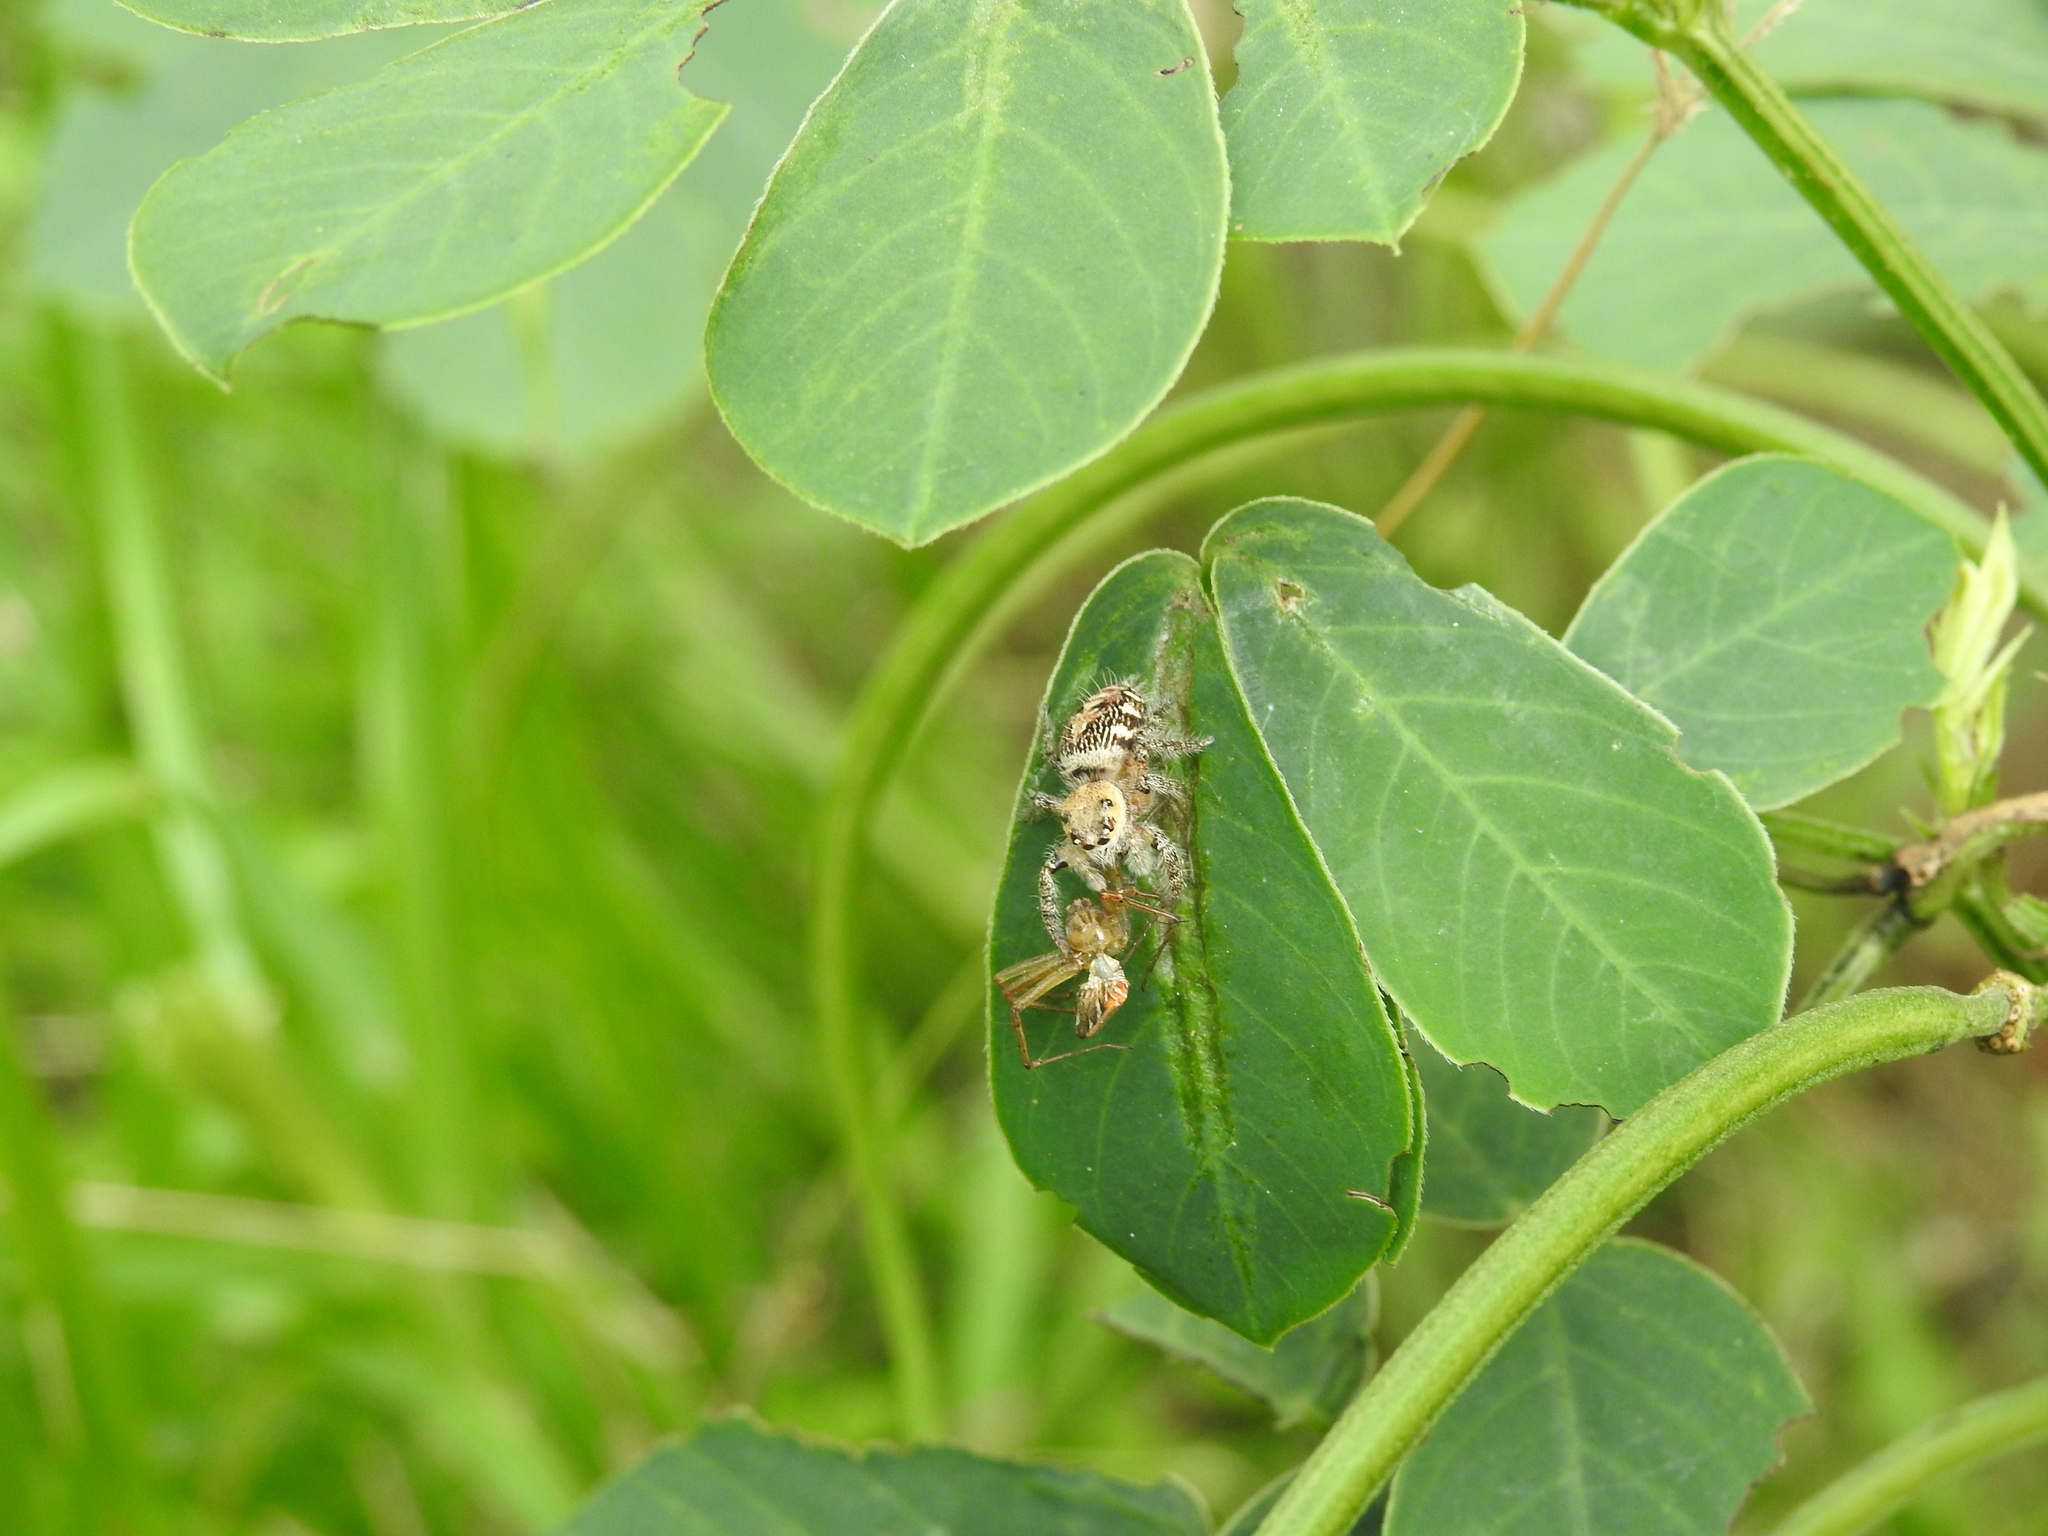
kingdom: Animalia
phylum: Arthropoda
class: Arachnida
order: Araneae
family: Salticidae
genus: Hyllus
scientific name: Hyllus semicupreus
